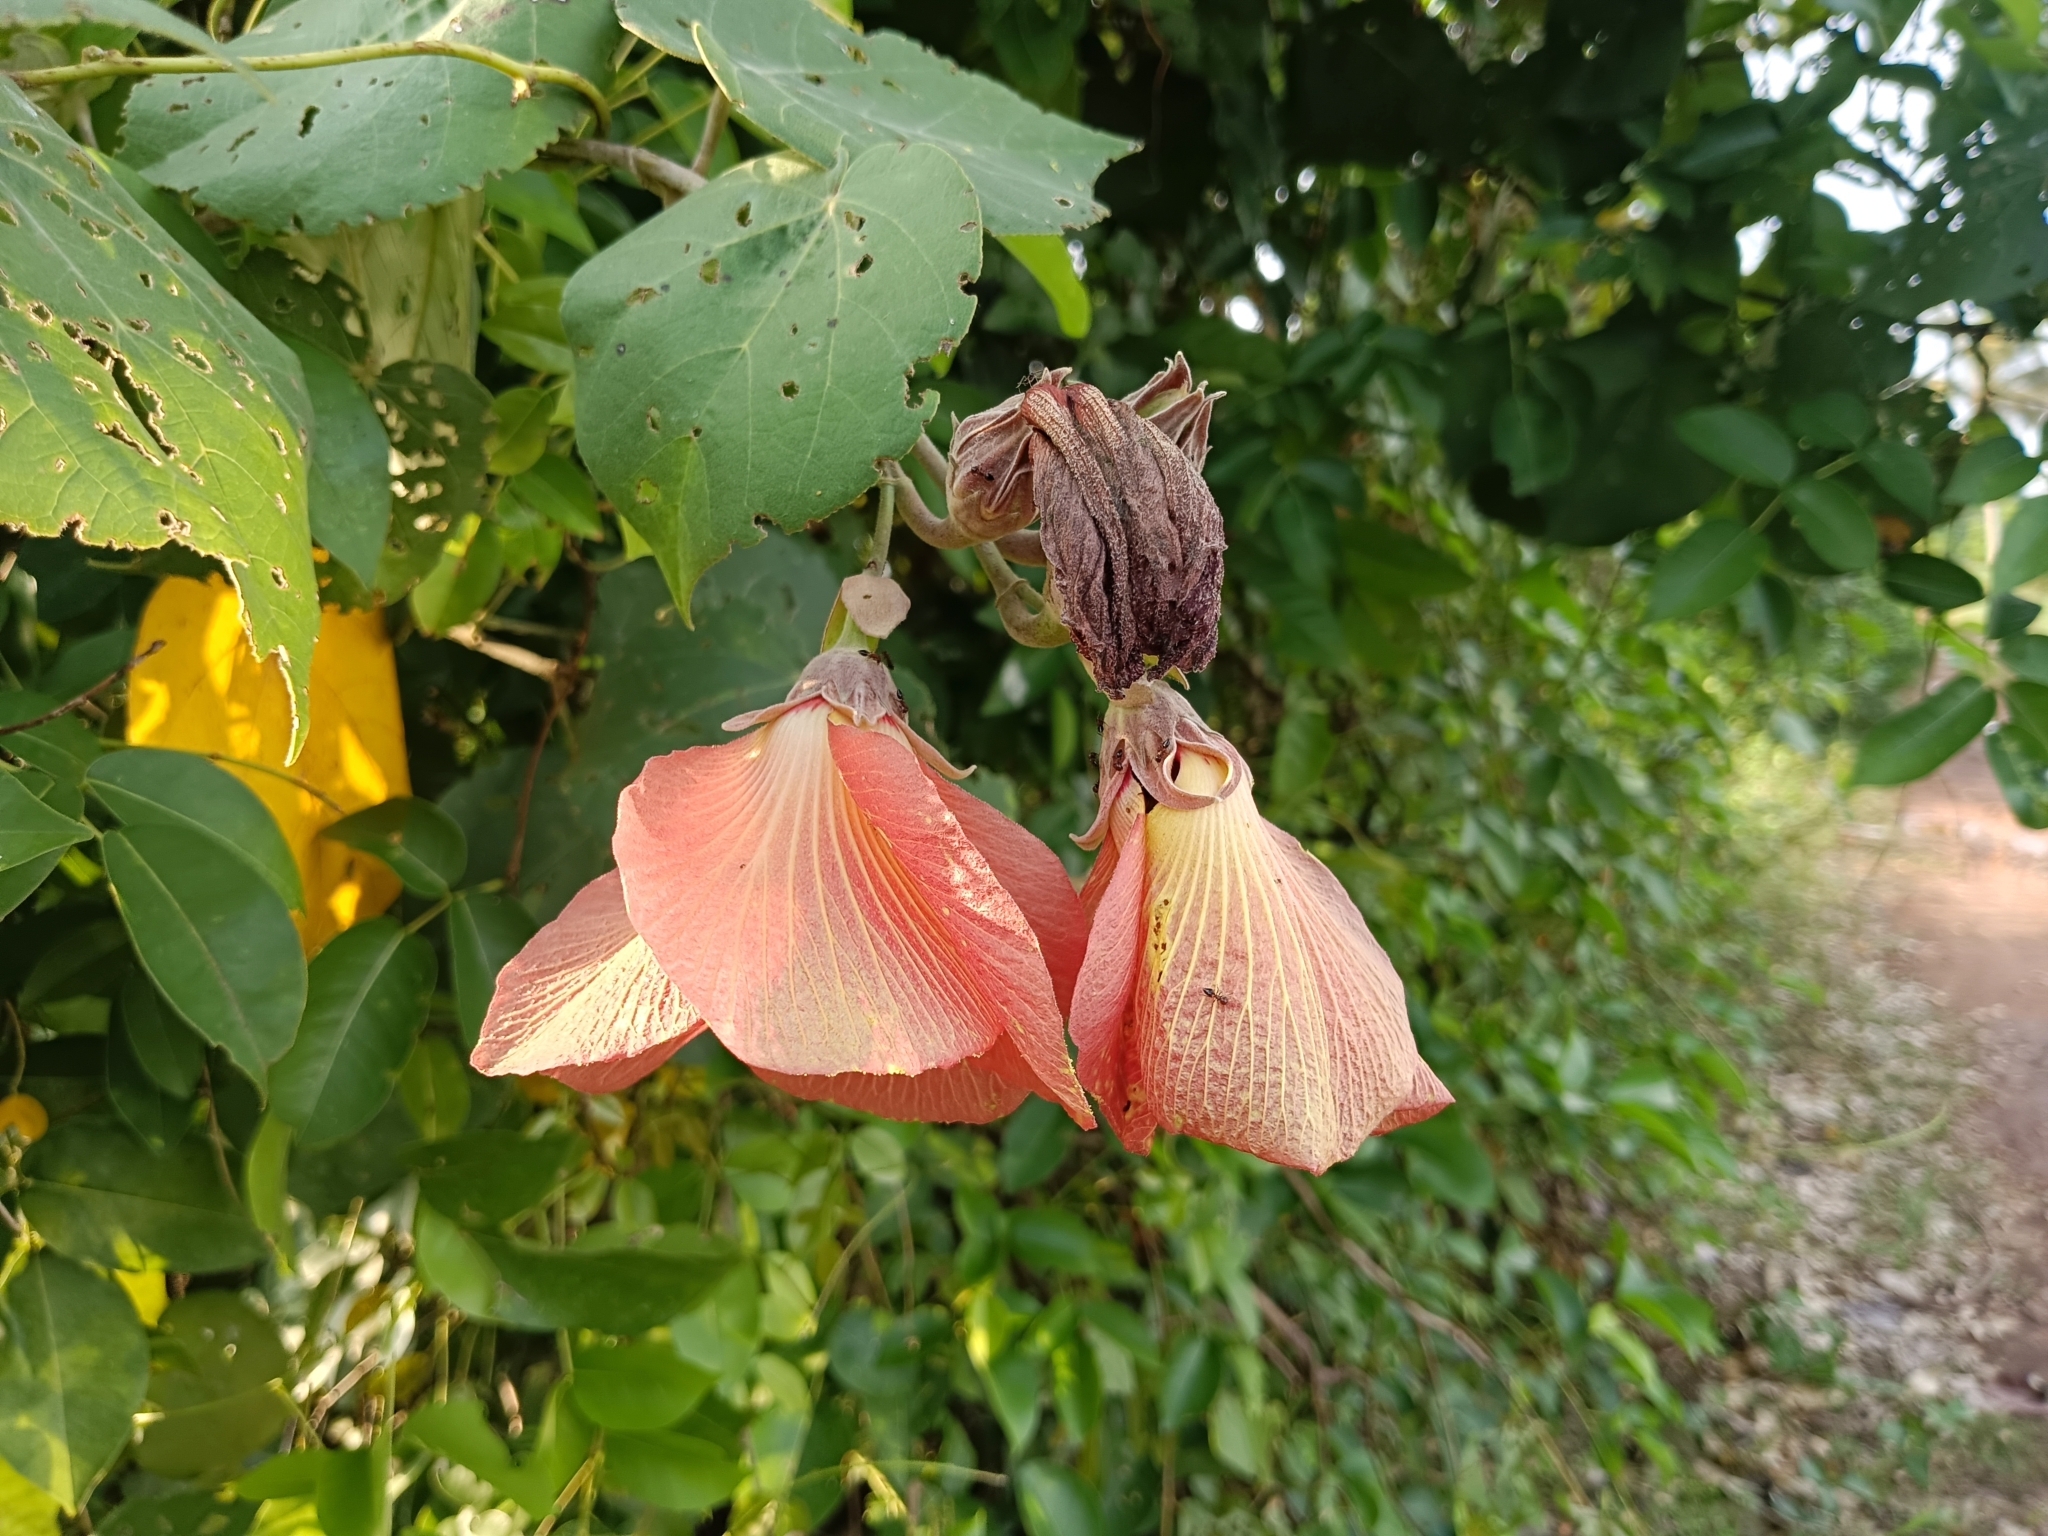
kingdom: Plantae
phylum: Tracheophyta
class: Magnoliopsida
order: Malvales
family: Malvaceae
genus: Talipariti
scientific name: Talipariti tiliaceum
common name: Sea hibiscus
